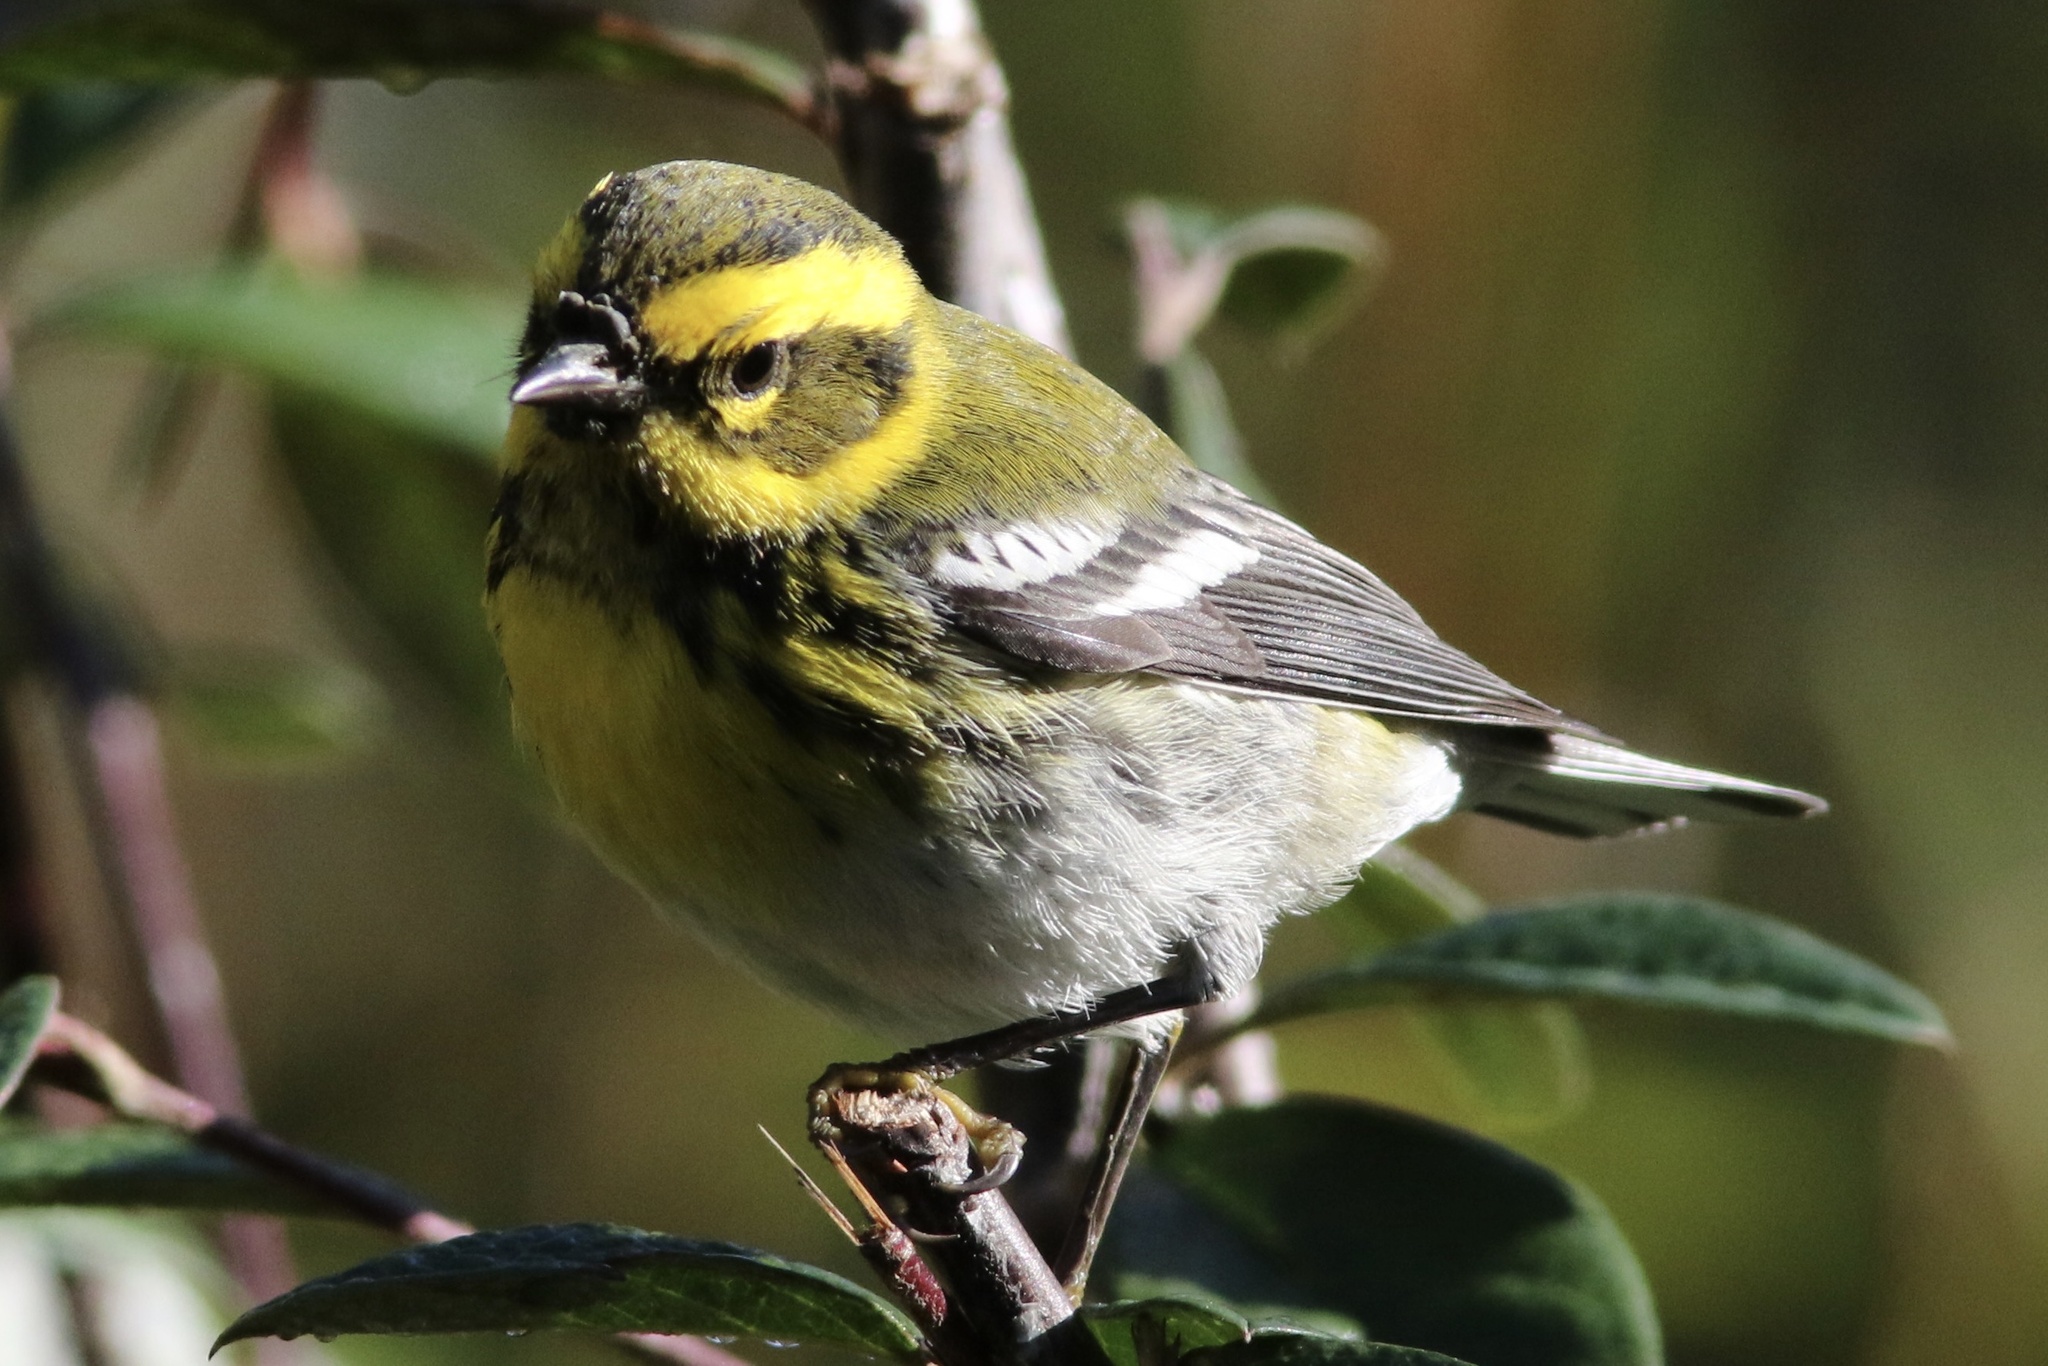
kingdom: Animalia
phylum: Chordata
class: Aves
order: Passeriformes
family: Parulidae
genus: Setophaga
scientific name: Setophaga townsendi
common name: Townsend's warbler
